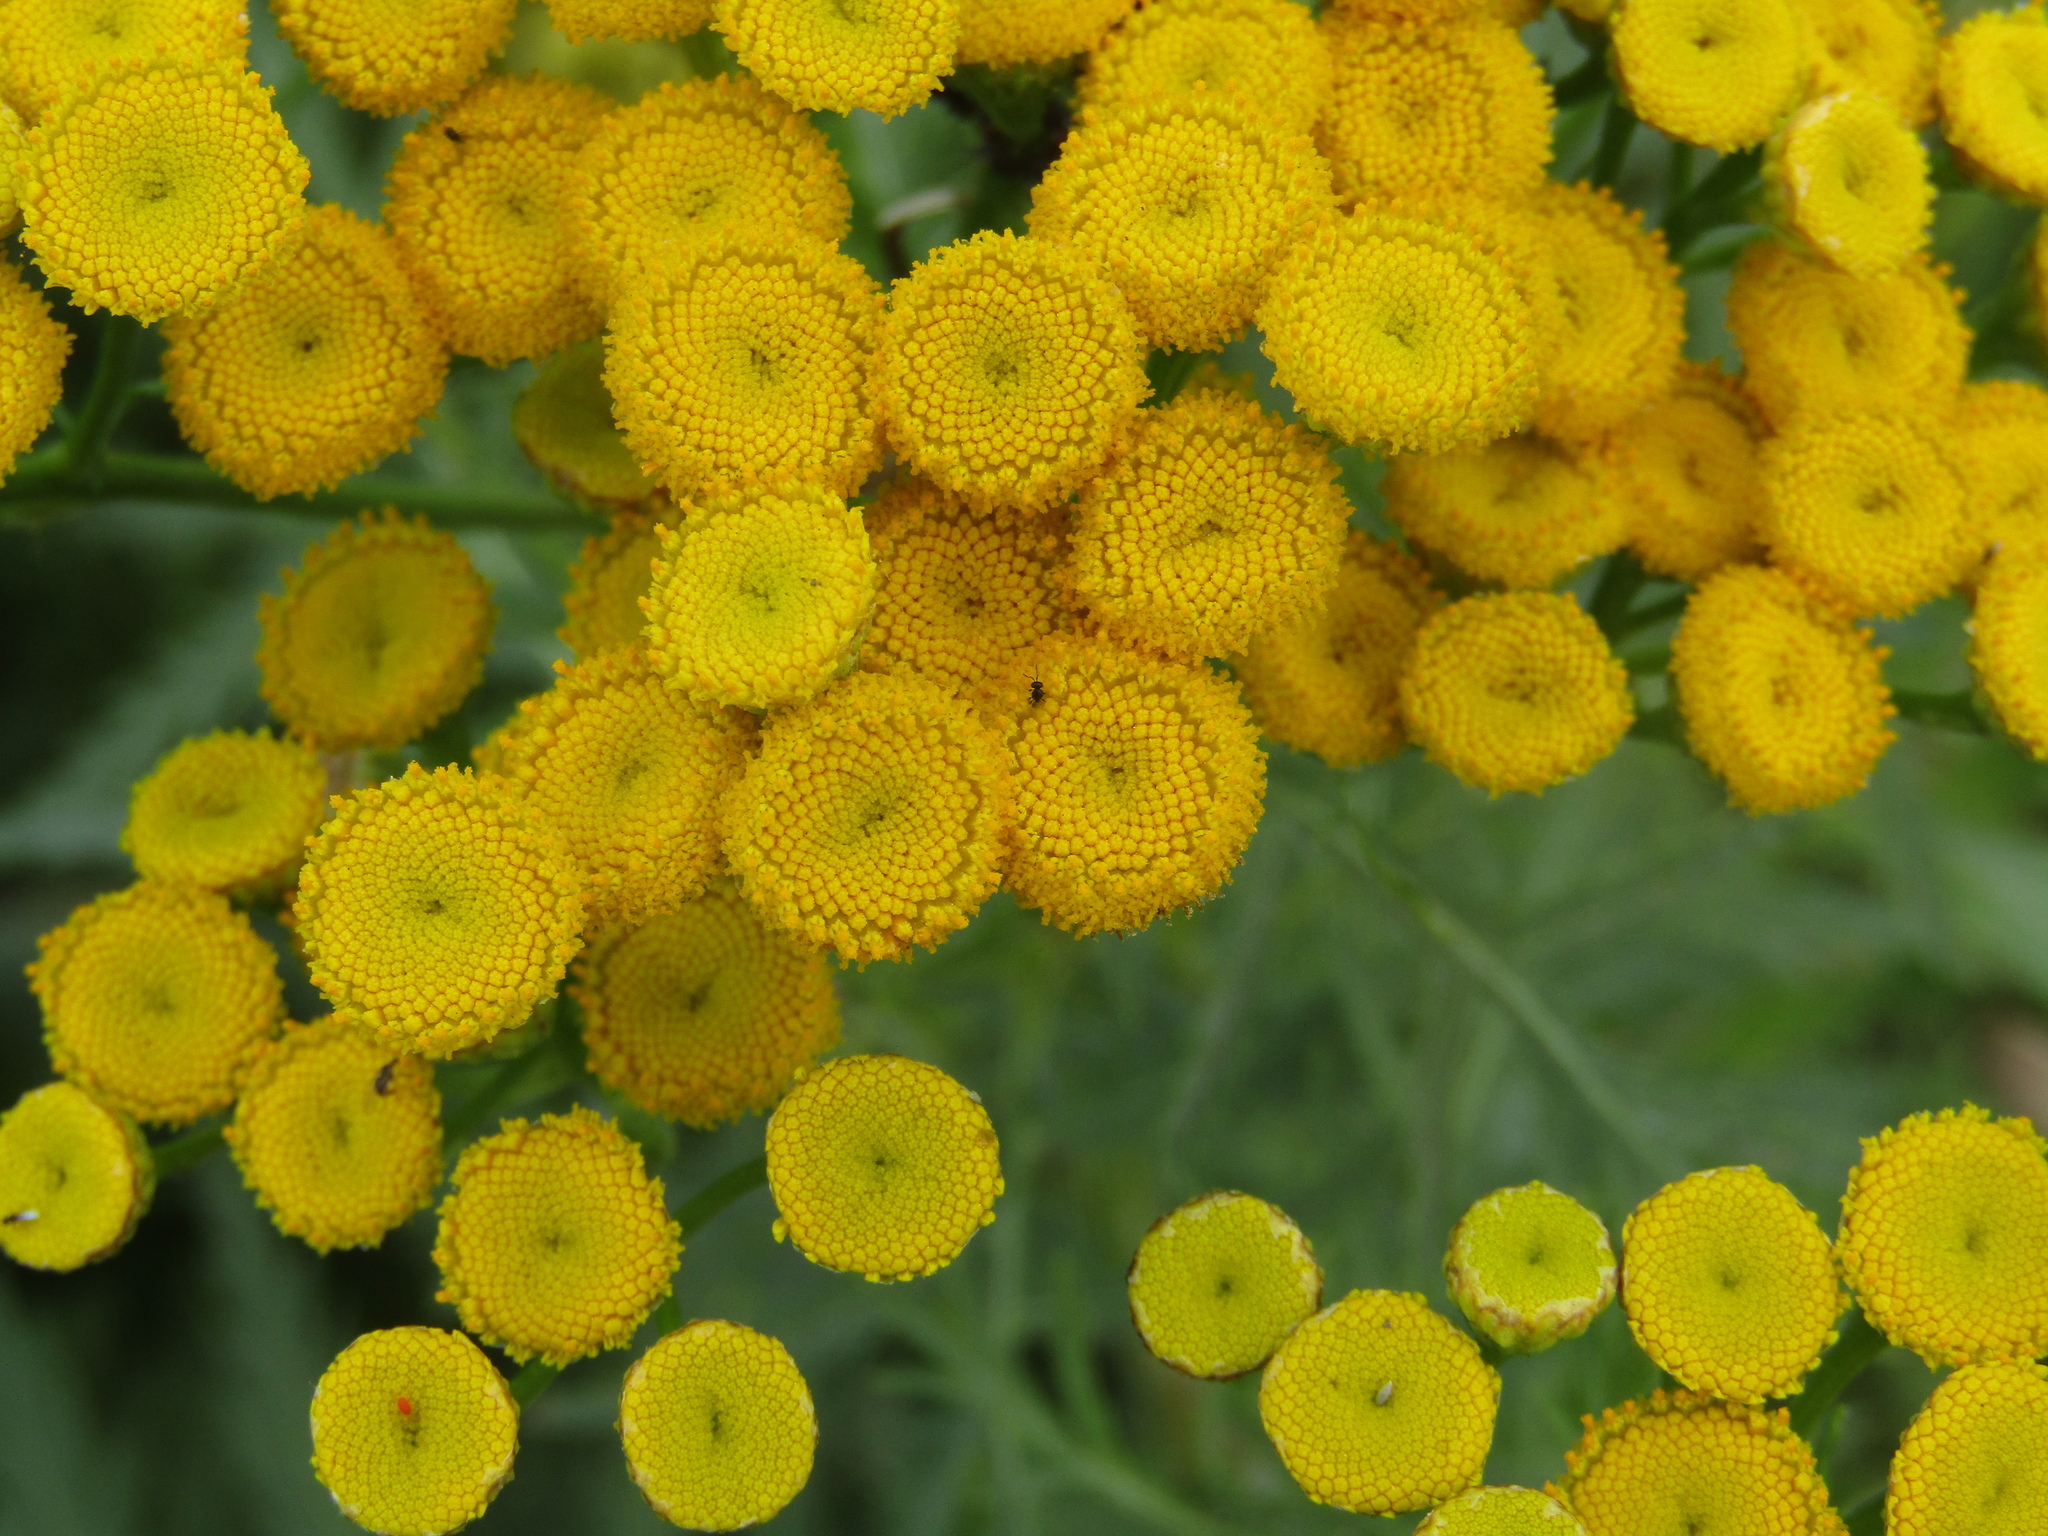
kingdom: Plantae
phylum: Tracheophyta
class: Magnoliopsida
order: Asterales
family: Asteraceae
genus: Tanacetum
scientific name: Tanacetum vulgare
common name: Common tansy
